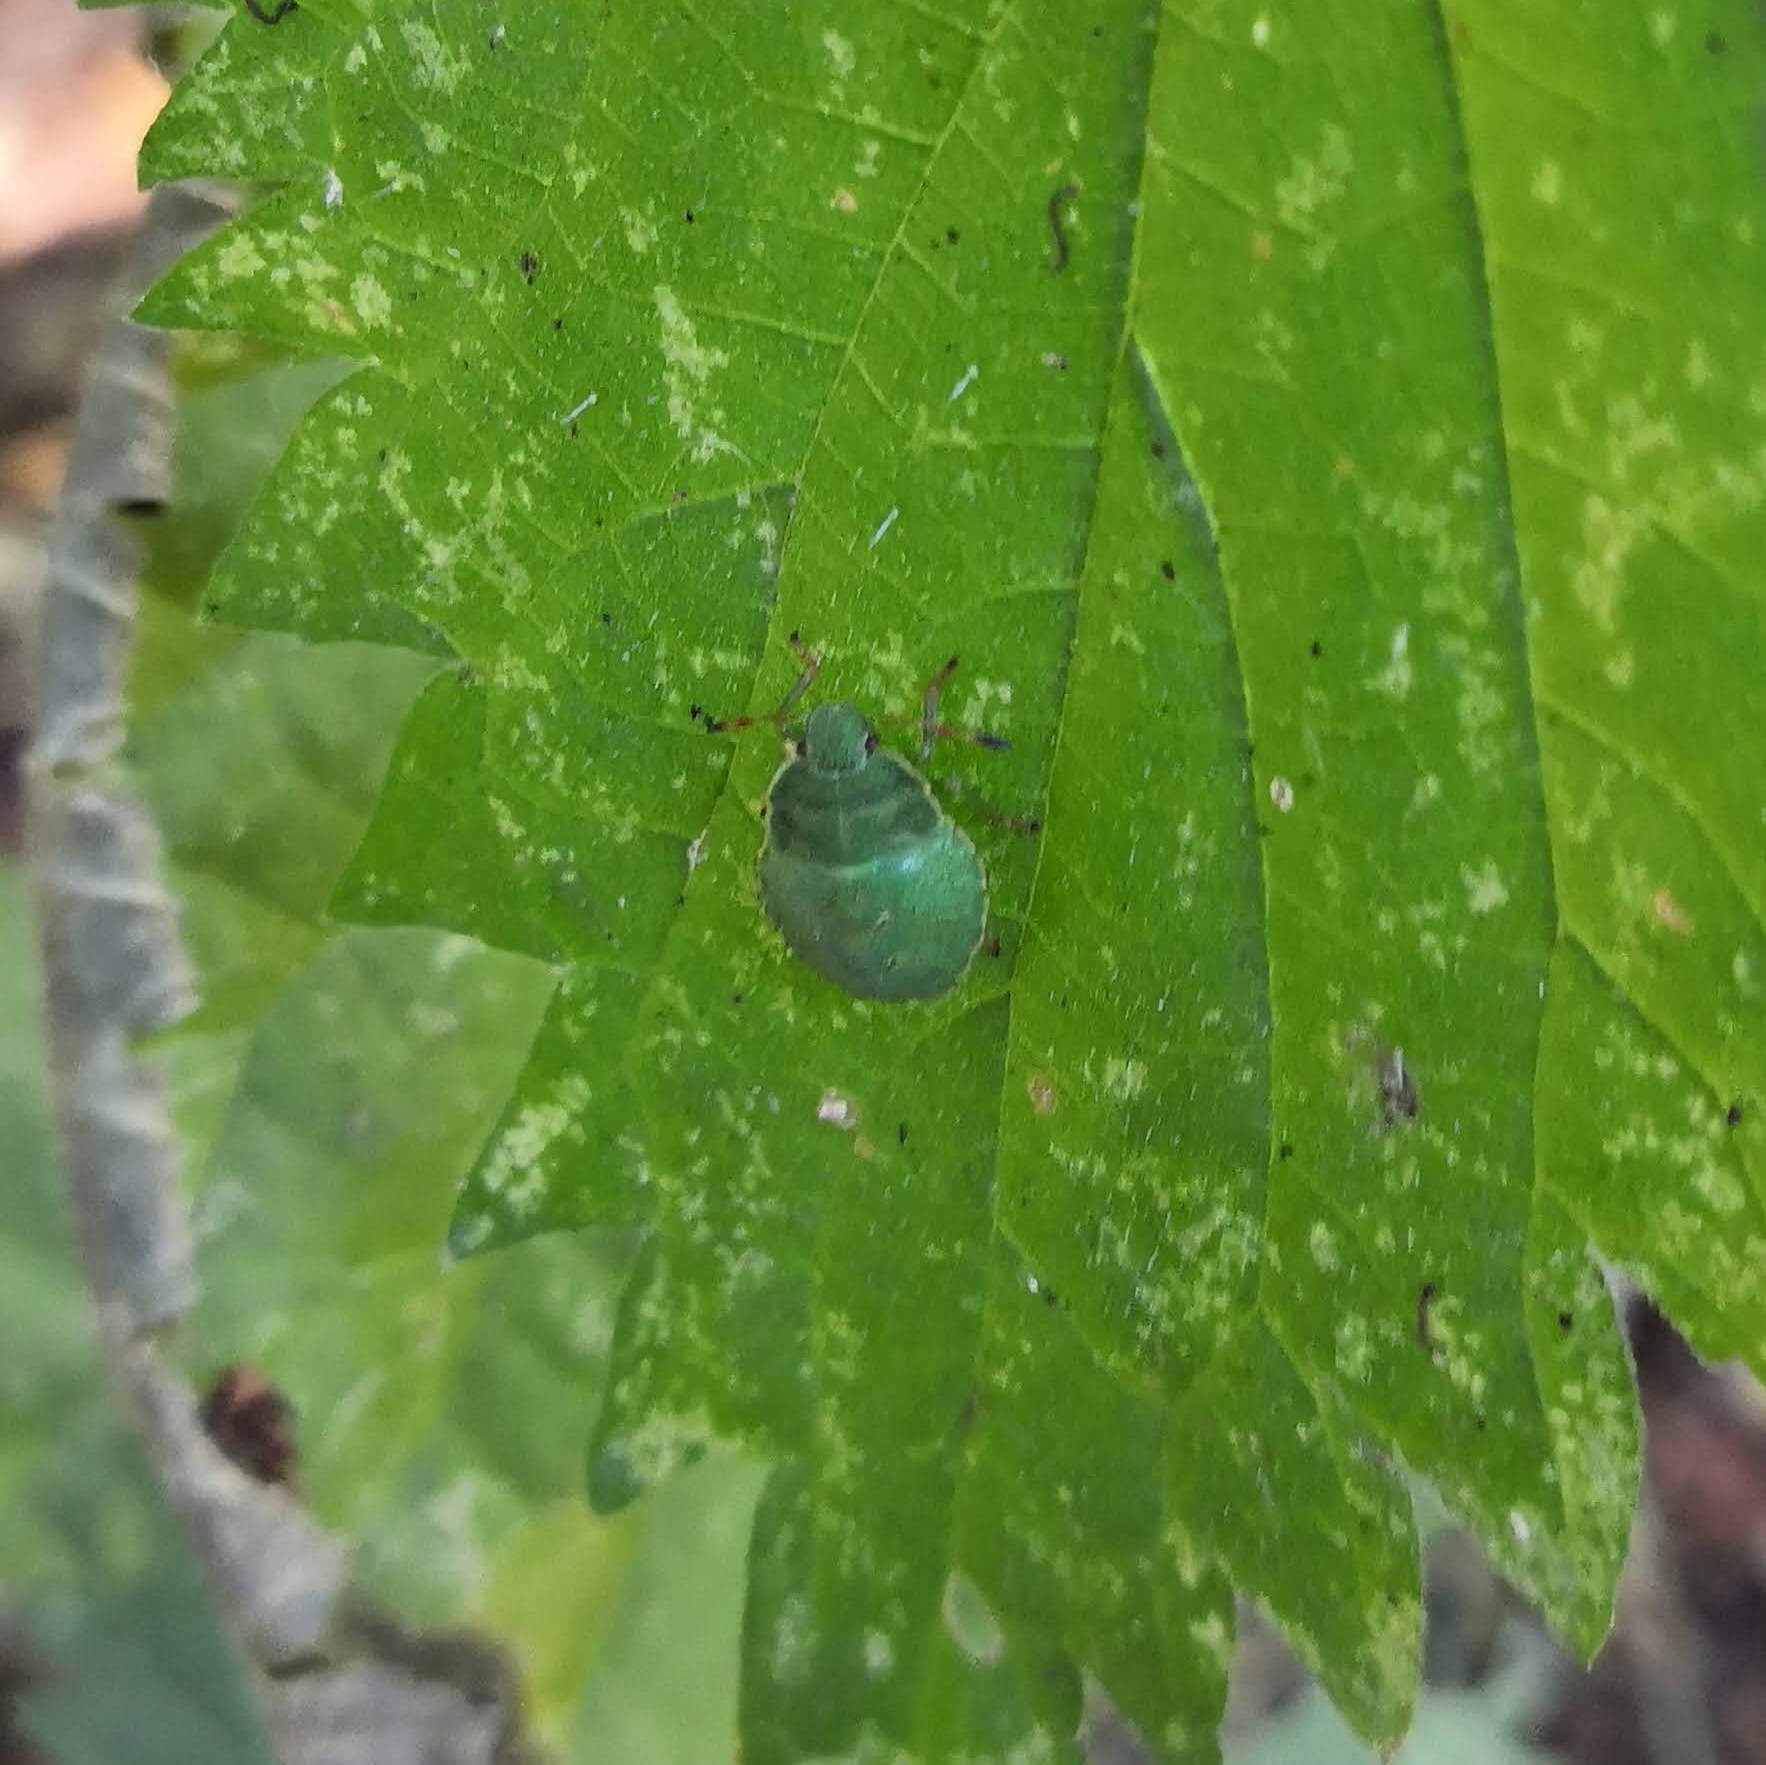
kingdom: Animalia
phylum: Arthropoda
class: Insecta
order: Hemiptera
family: Pentatomidae
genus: Palomena
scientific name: Palomena prasina
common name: Green shieldbug
